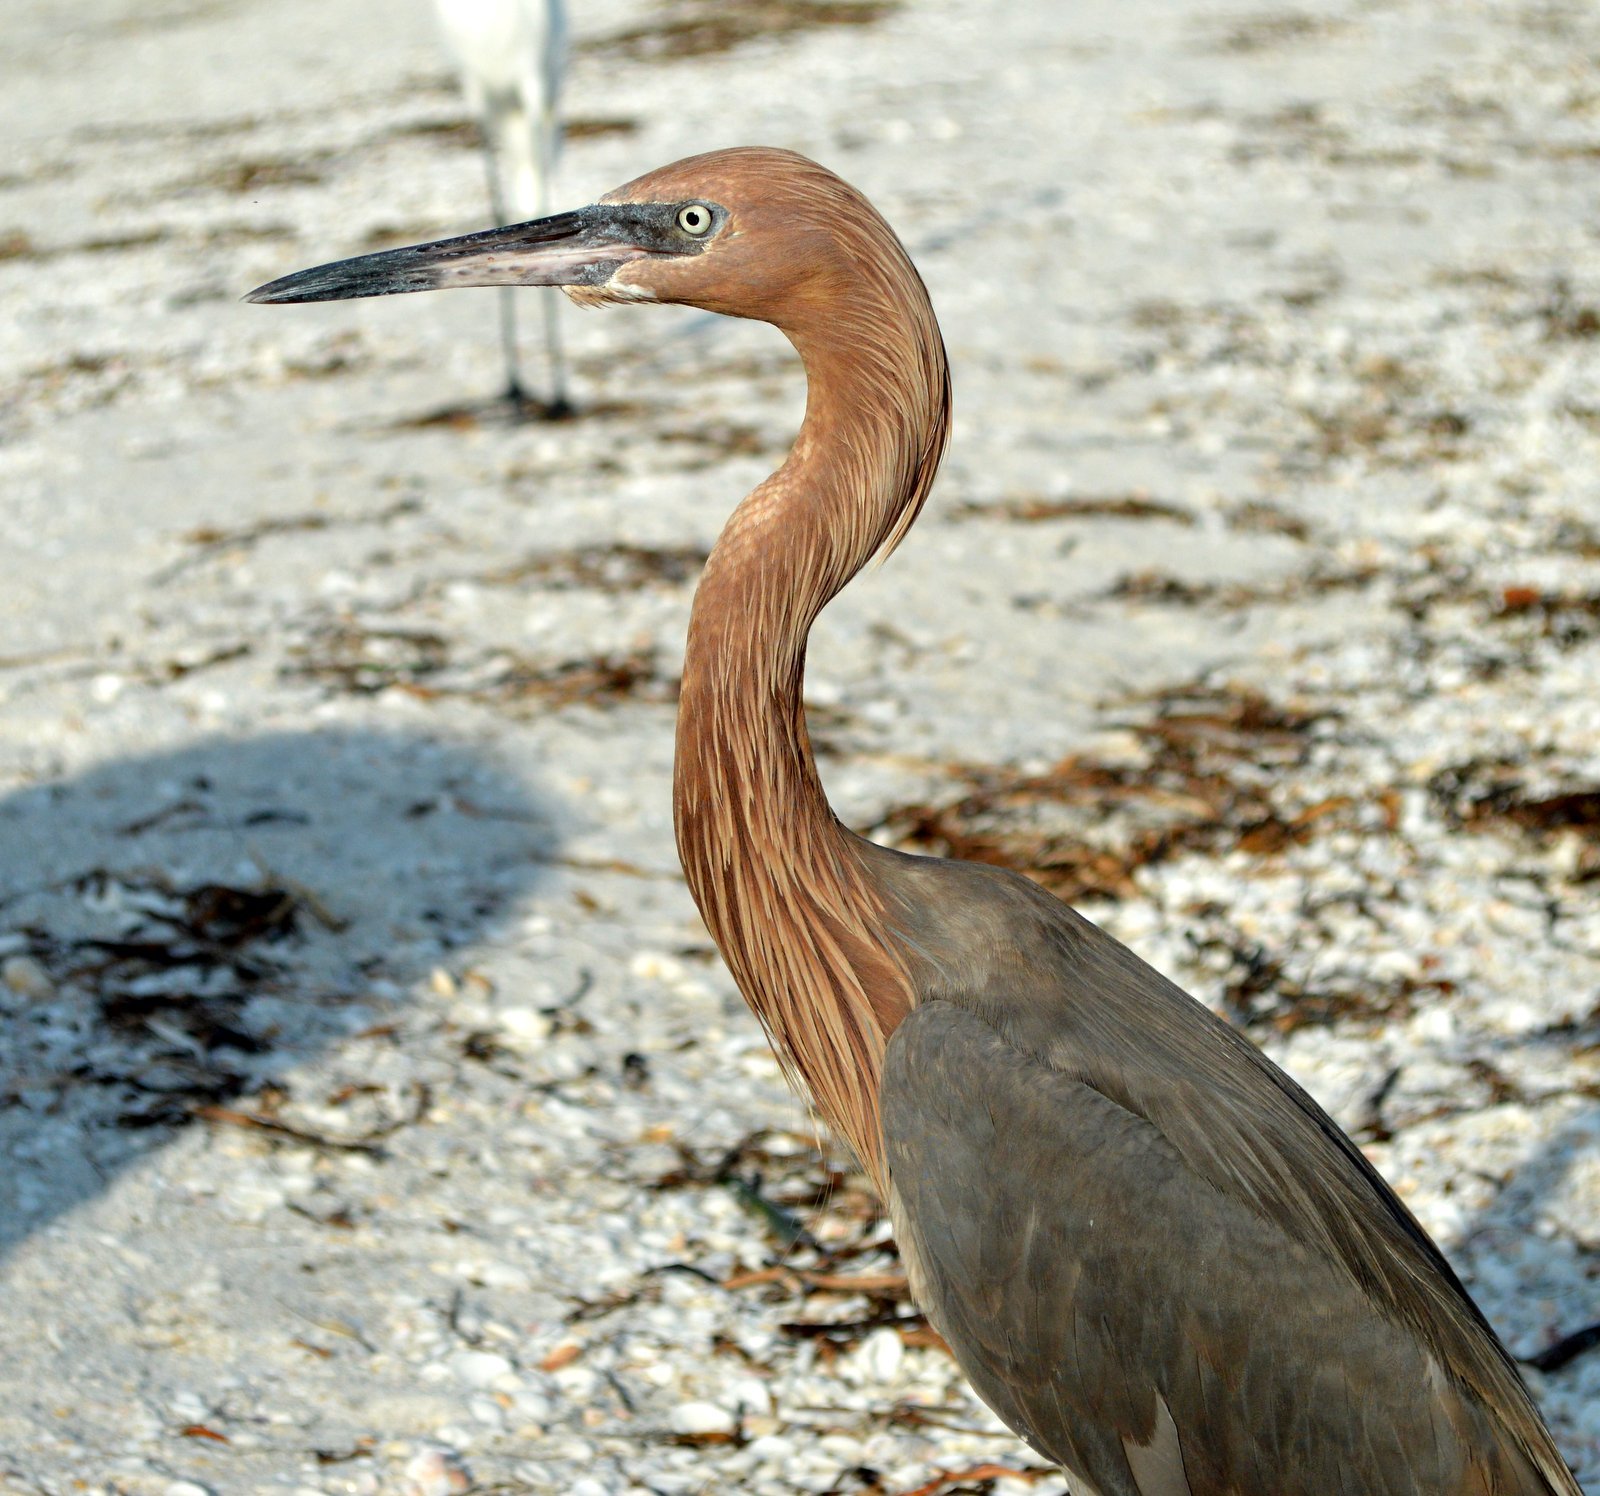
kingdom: Animalia
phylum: Chordata
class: Aves
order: Pelecaniformes
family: Ardeidae
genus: Egretta
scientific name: Egretta rufescens
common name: Reddish egret
